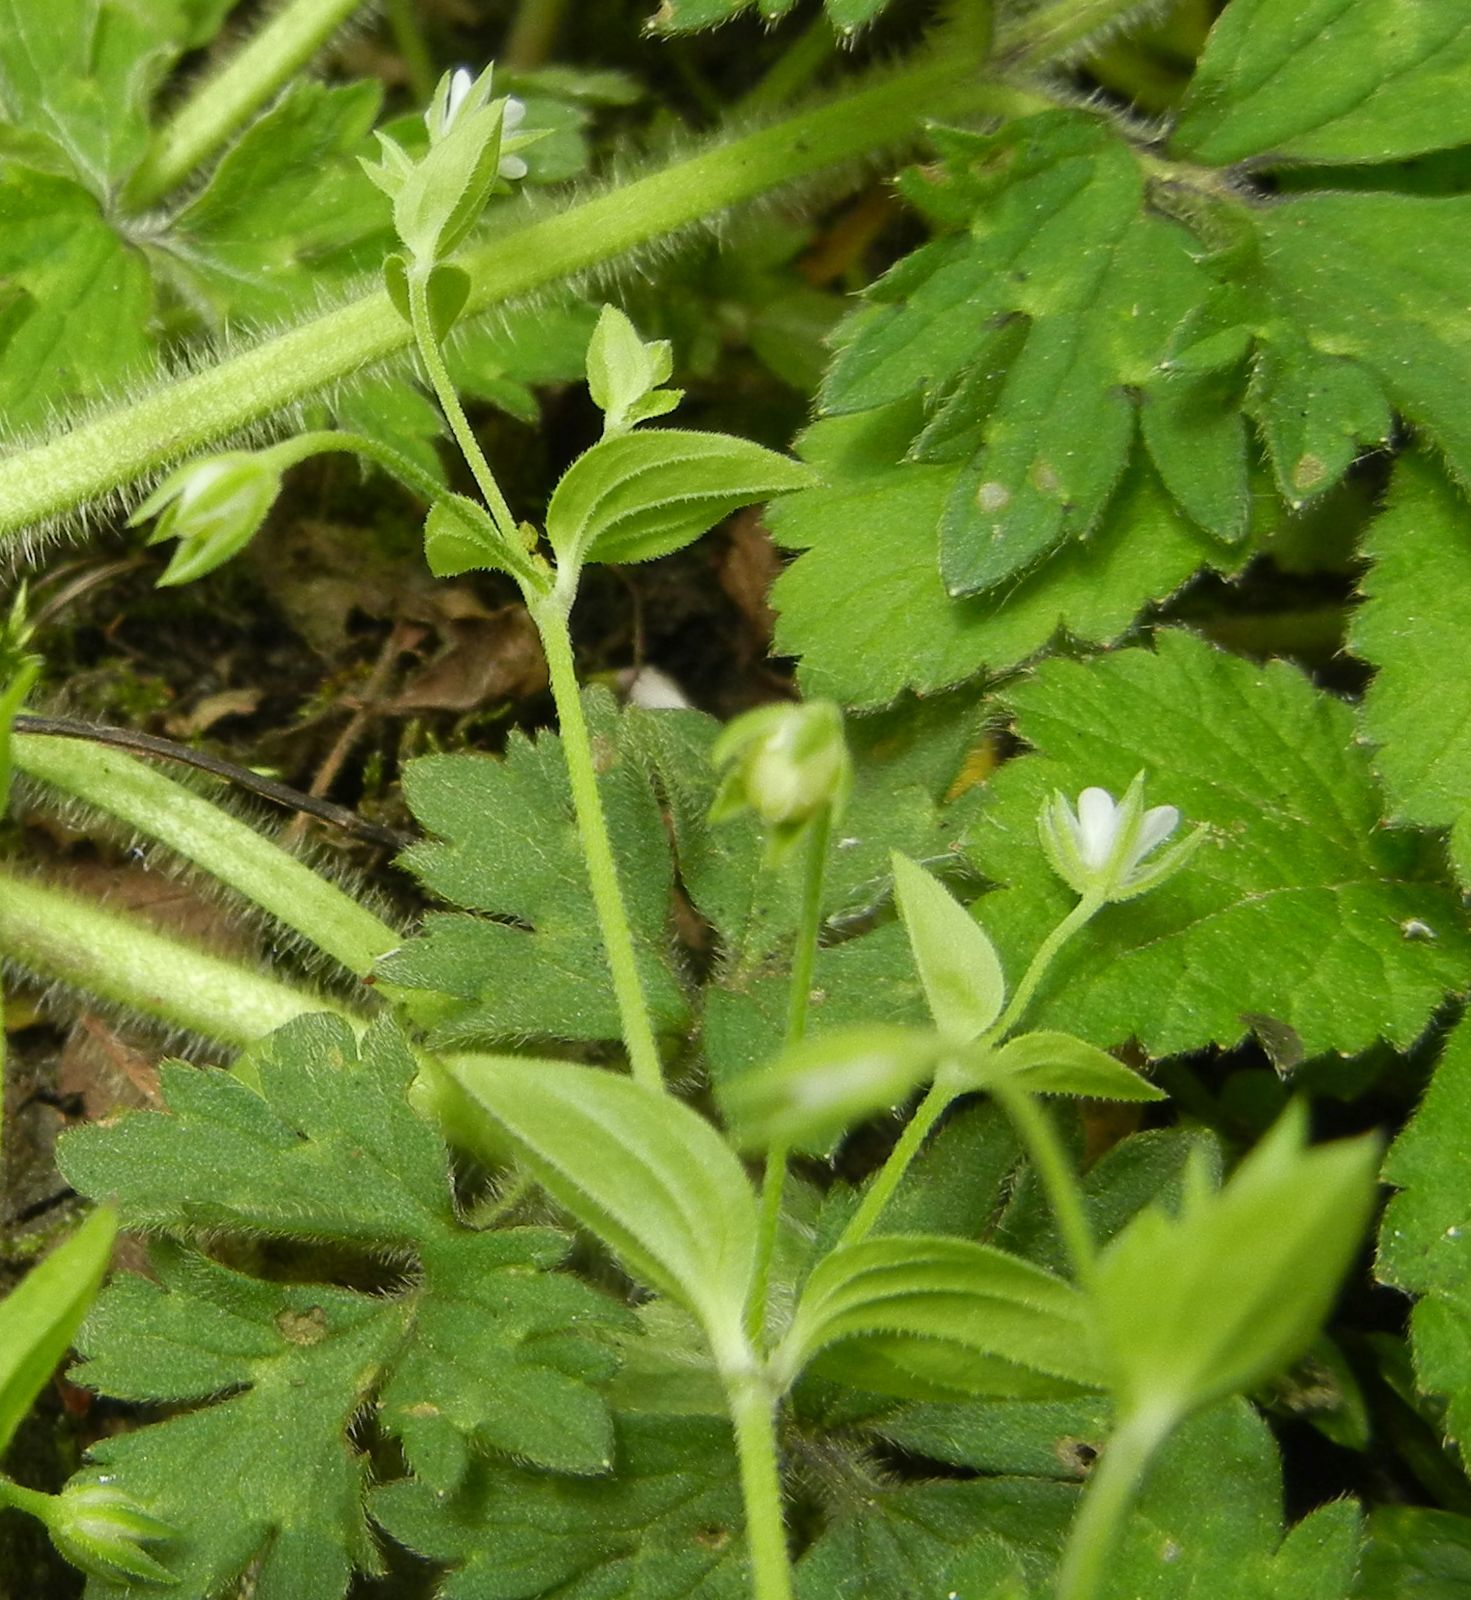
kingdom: Plantae
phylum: Tracheophyta
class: Magnoliopsida
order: Caryophyllales
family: Caryophyllaceae
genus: Moehringia
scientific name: Moehringia trinervia
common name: Three-nerved sandwort
